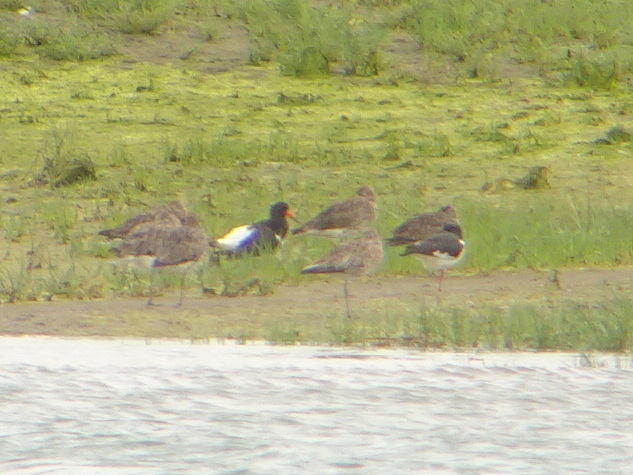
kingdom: Animalia
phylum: Chordata
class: Aves
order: Charadriiformes
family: Haematopodidae
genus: Haematopus
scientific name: Haematopus ostralegus
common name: Eurasian oystercatcher
